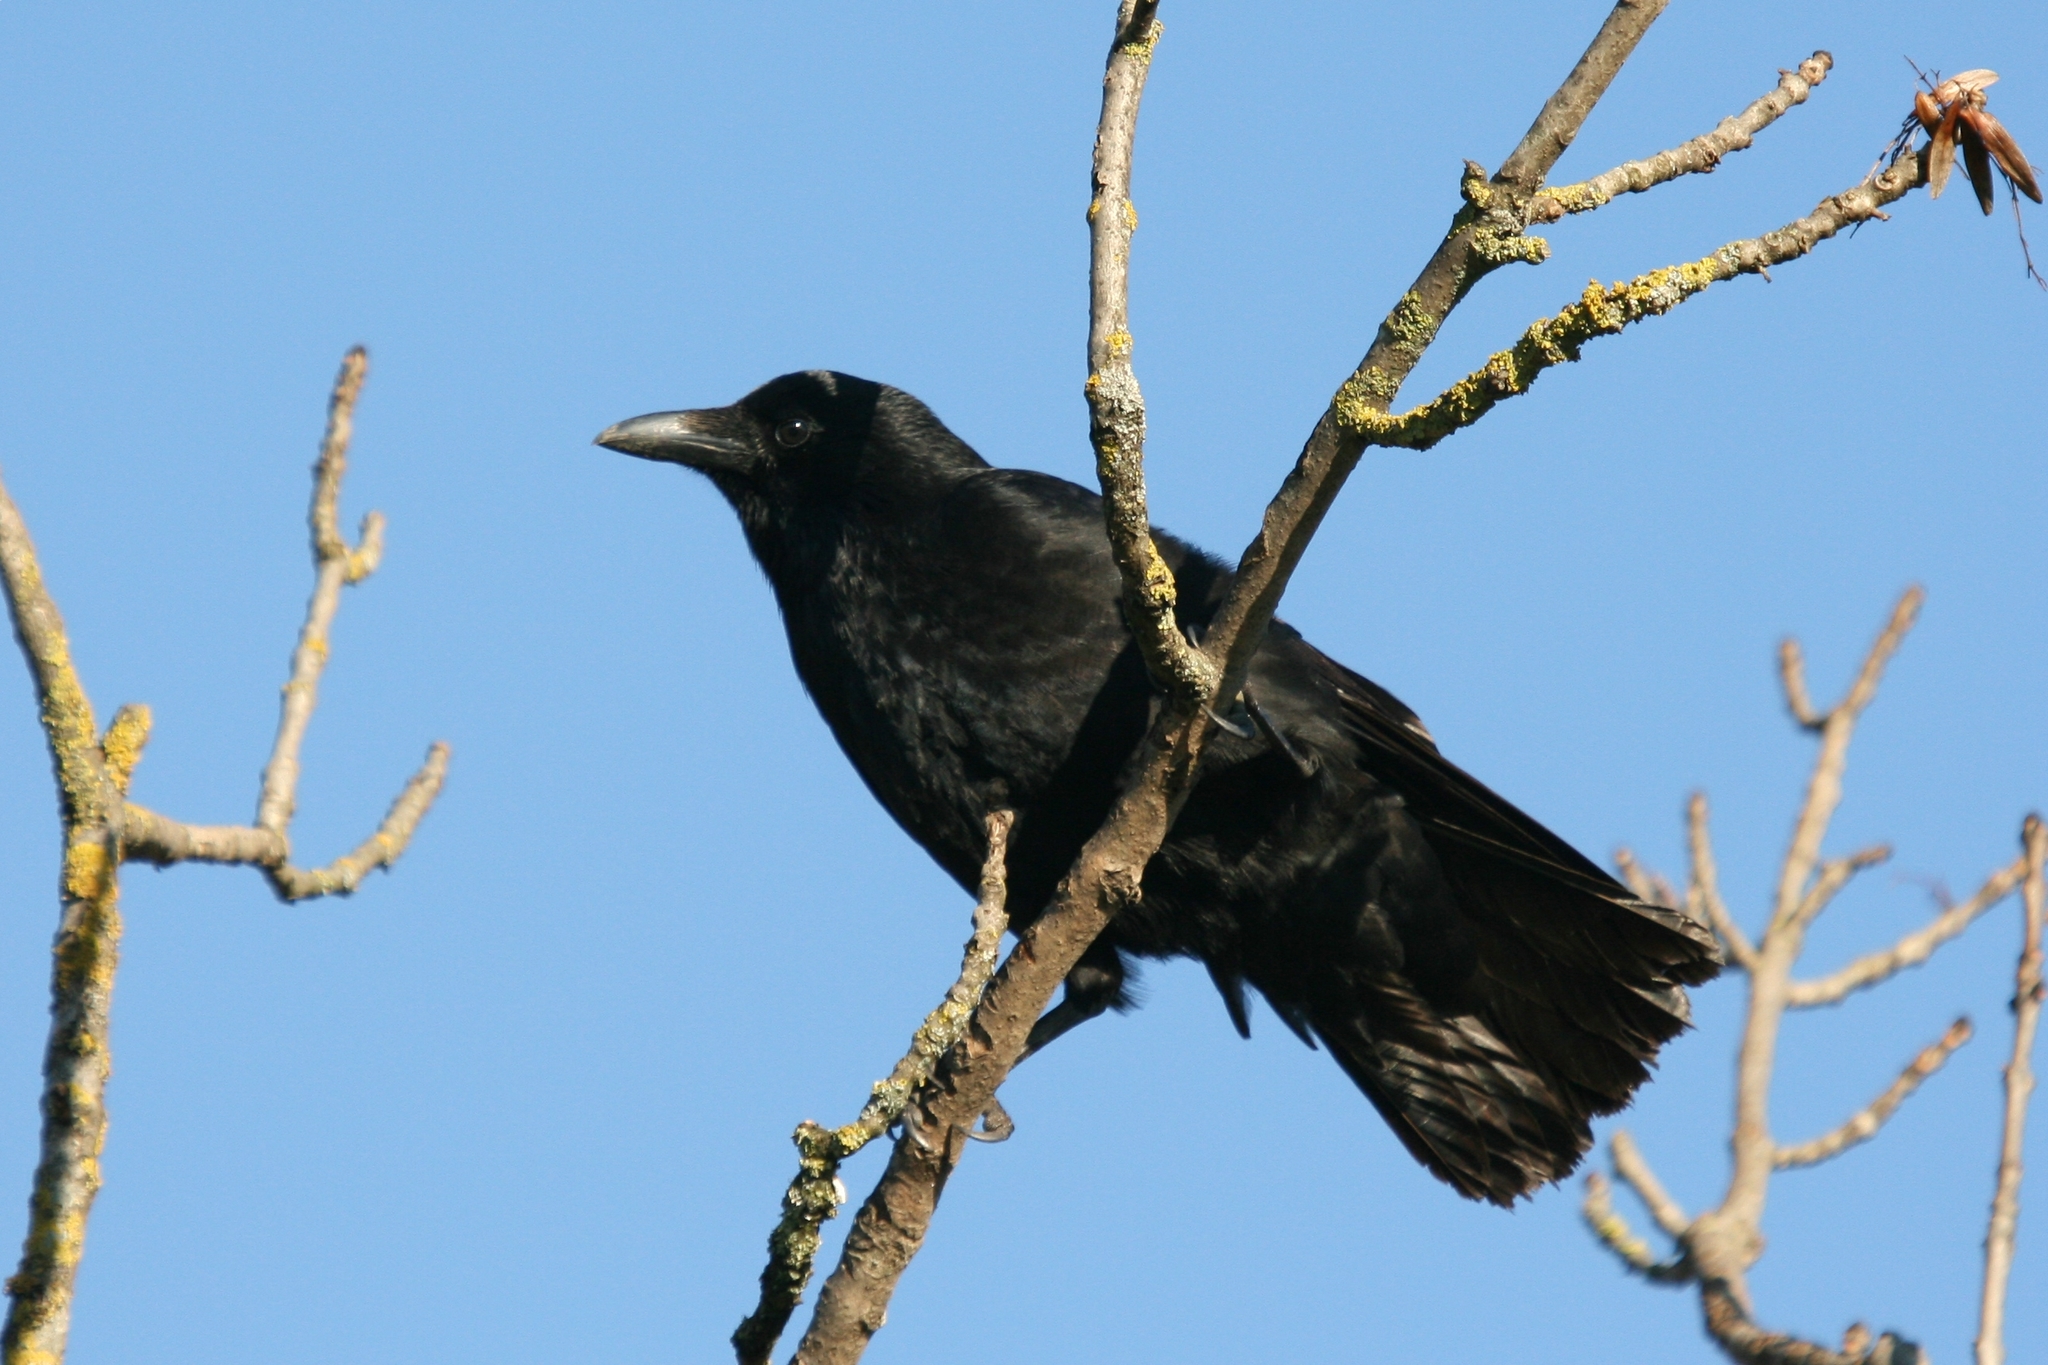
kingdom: Animalia
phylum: Chordata
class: Aves
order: Passeriformes
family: Corvidae
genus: Corvus
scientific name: Corvus corone
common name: Carrion crow
